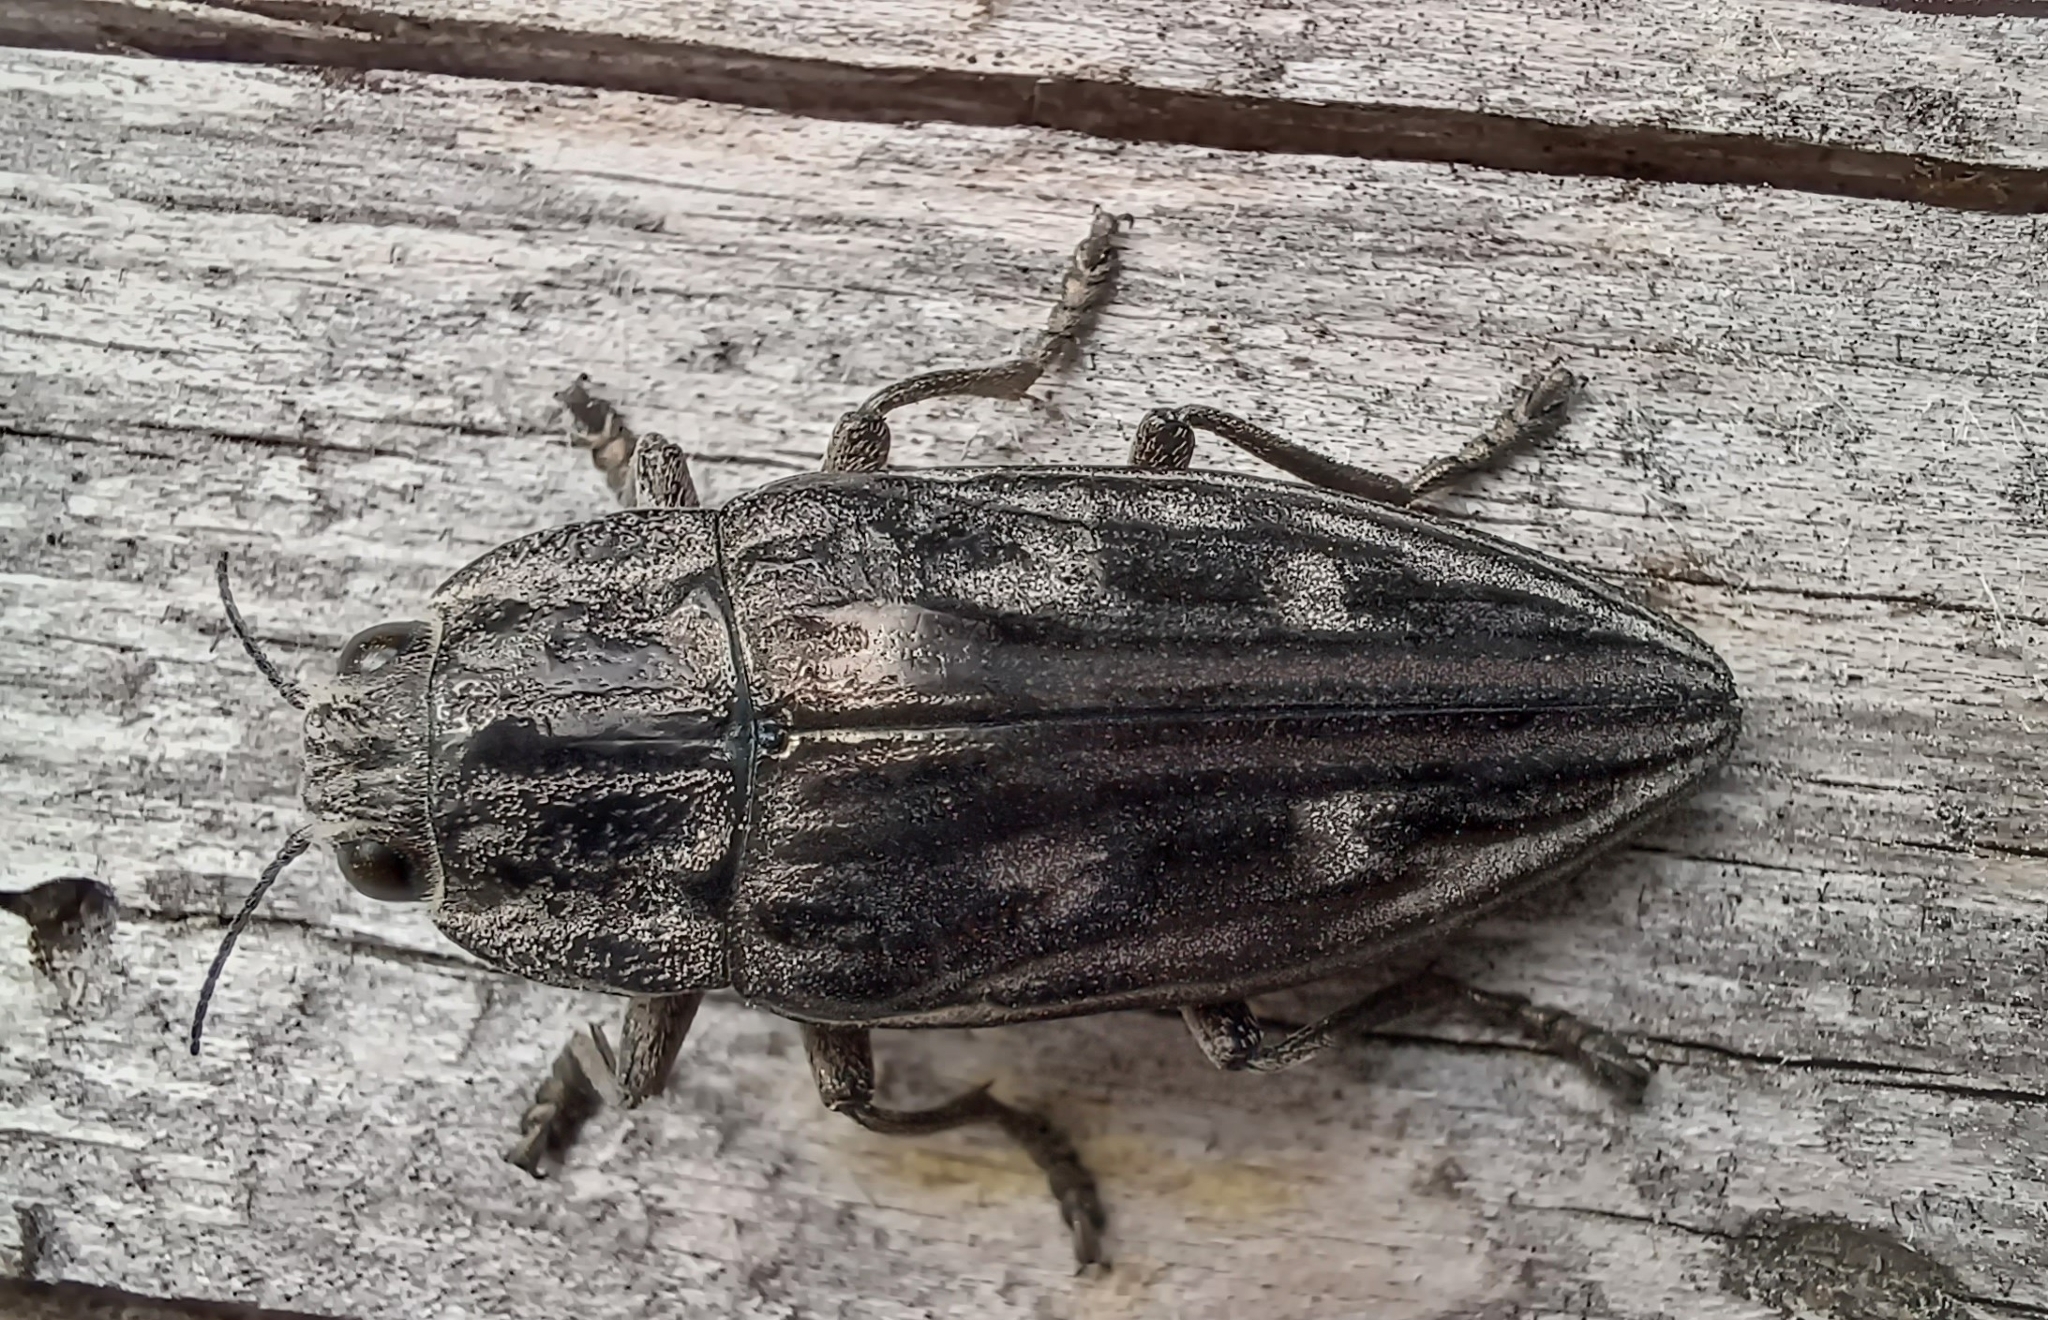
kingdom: Animalia
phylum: Arthropoda
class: Insecta
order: Coleoptera
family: Buprestidae
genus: Chalcophora
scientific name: Chalcophora mariana
